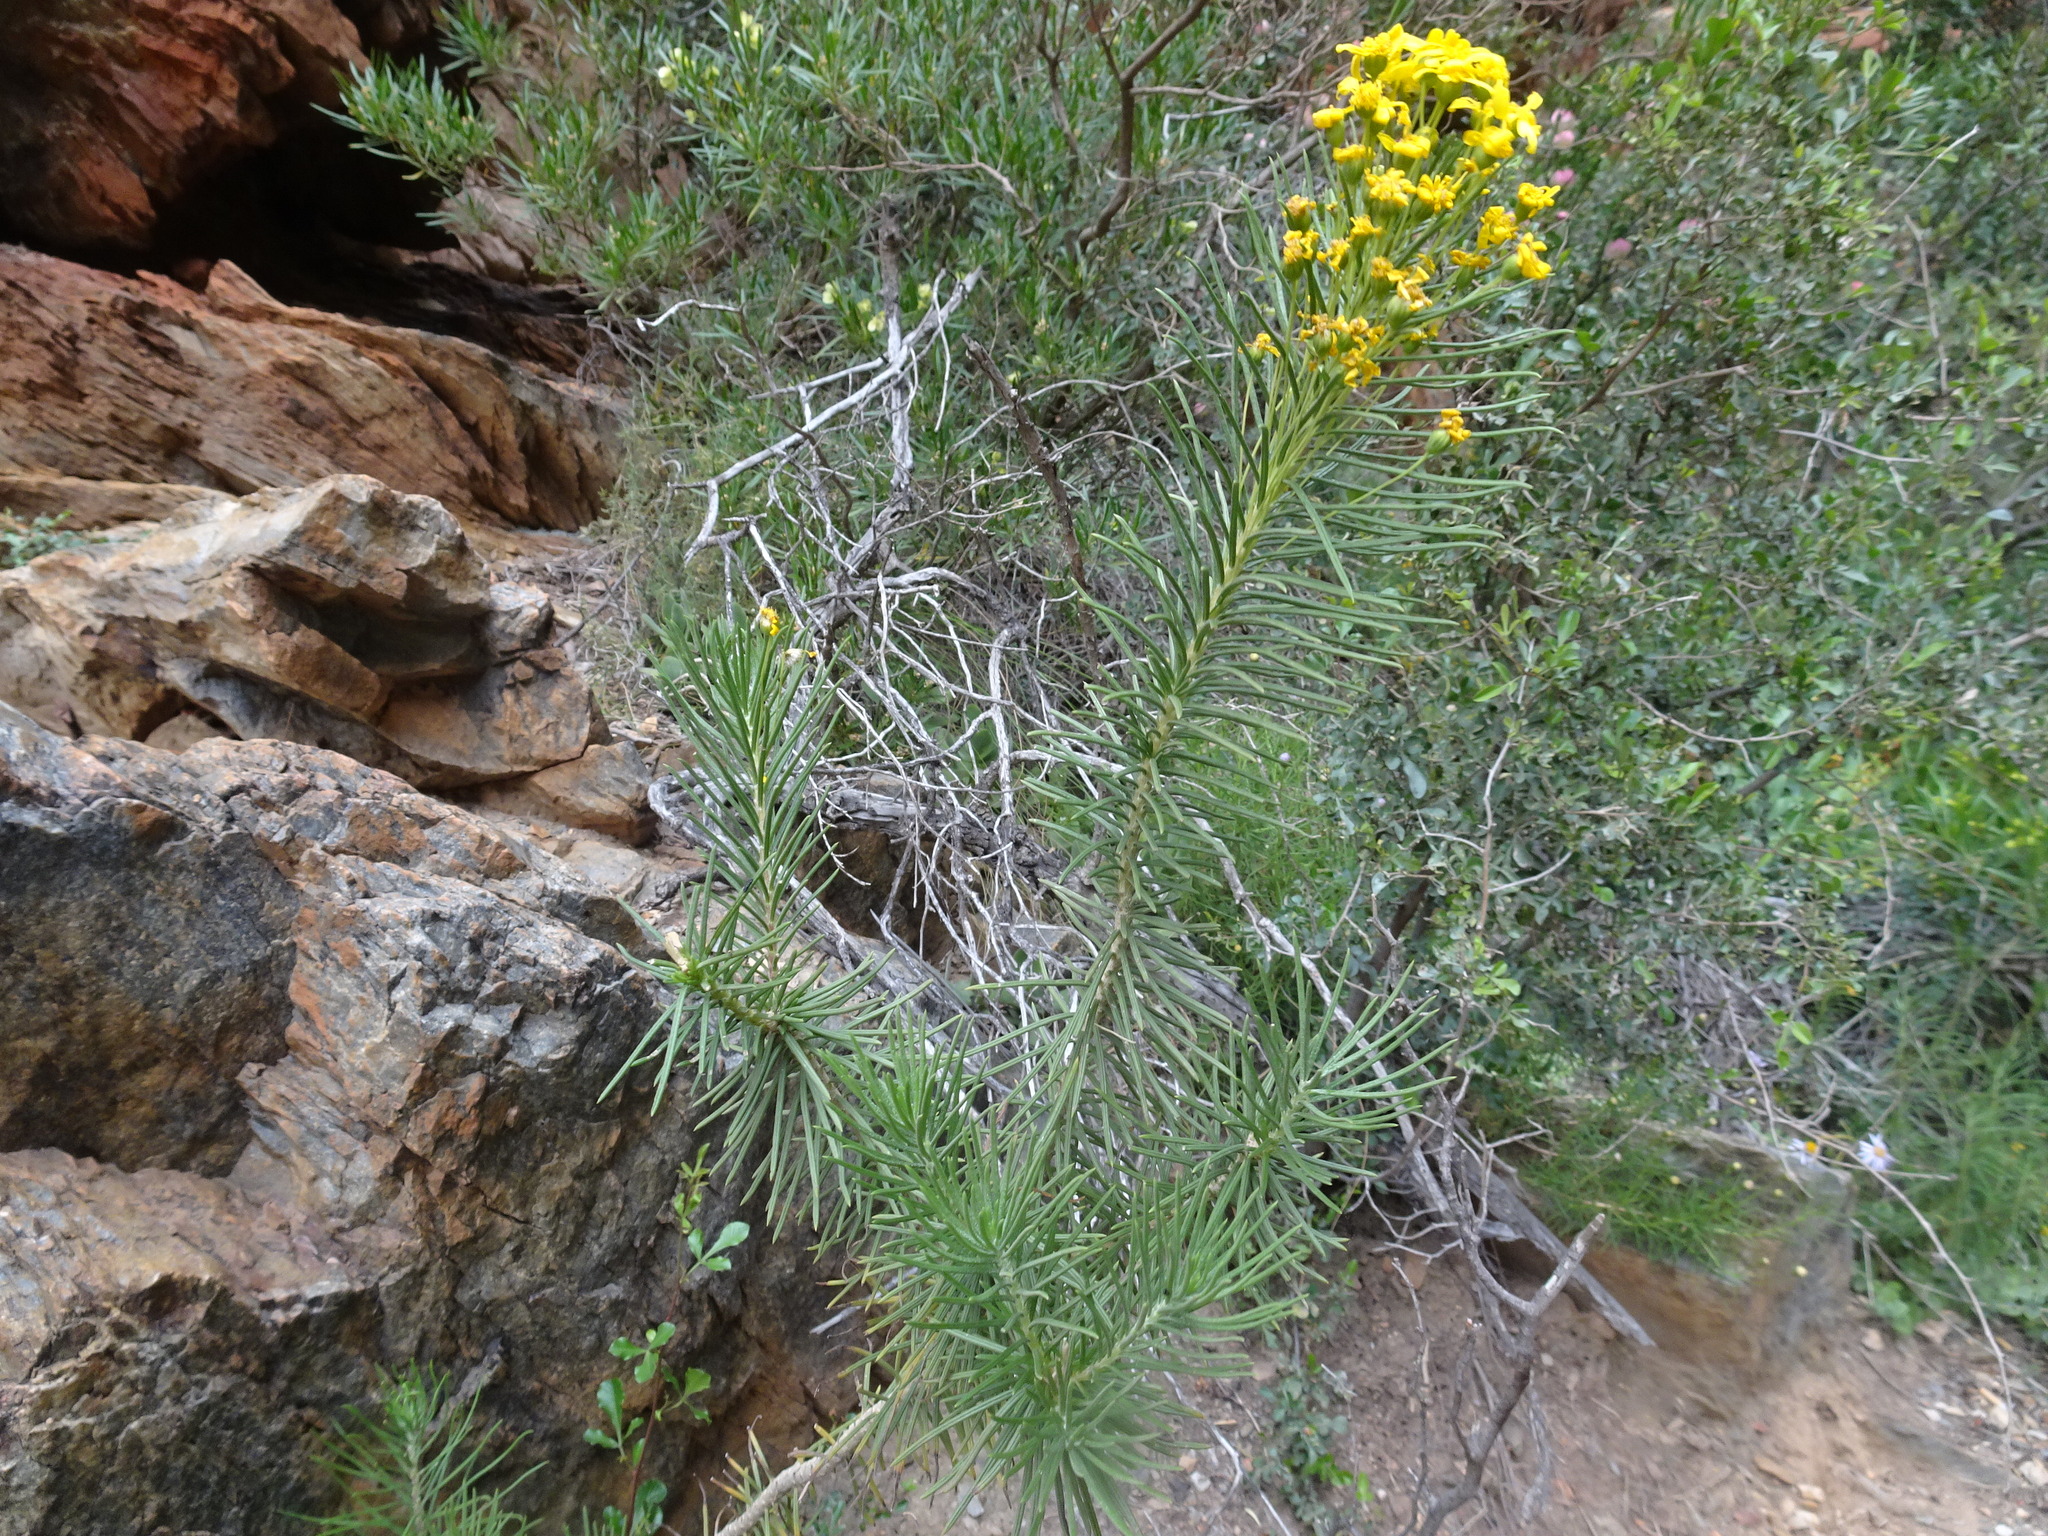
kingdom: Plantae
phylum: Tracheophyta
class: Magnoliopsida
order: Asterales
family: Asteraceae
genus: Euryops
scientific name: Euryops rehmannii
